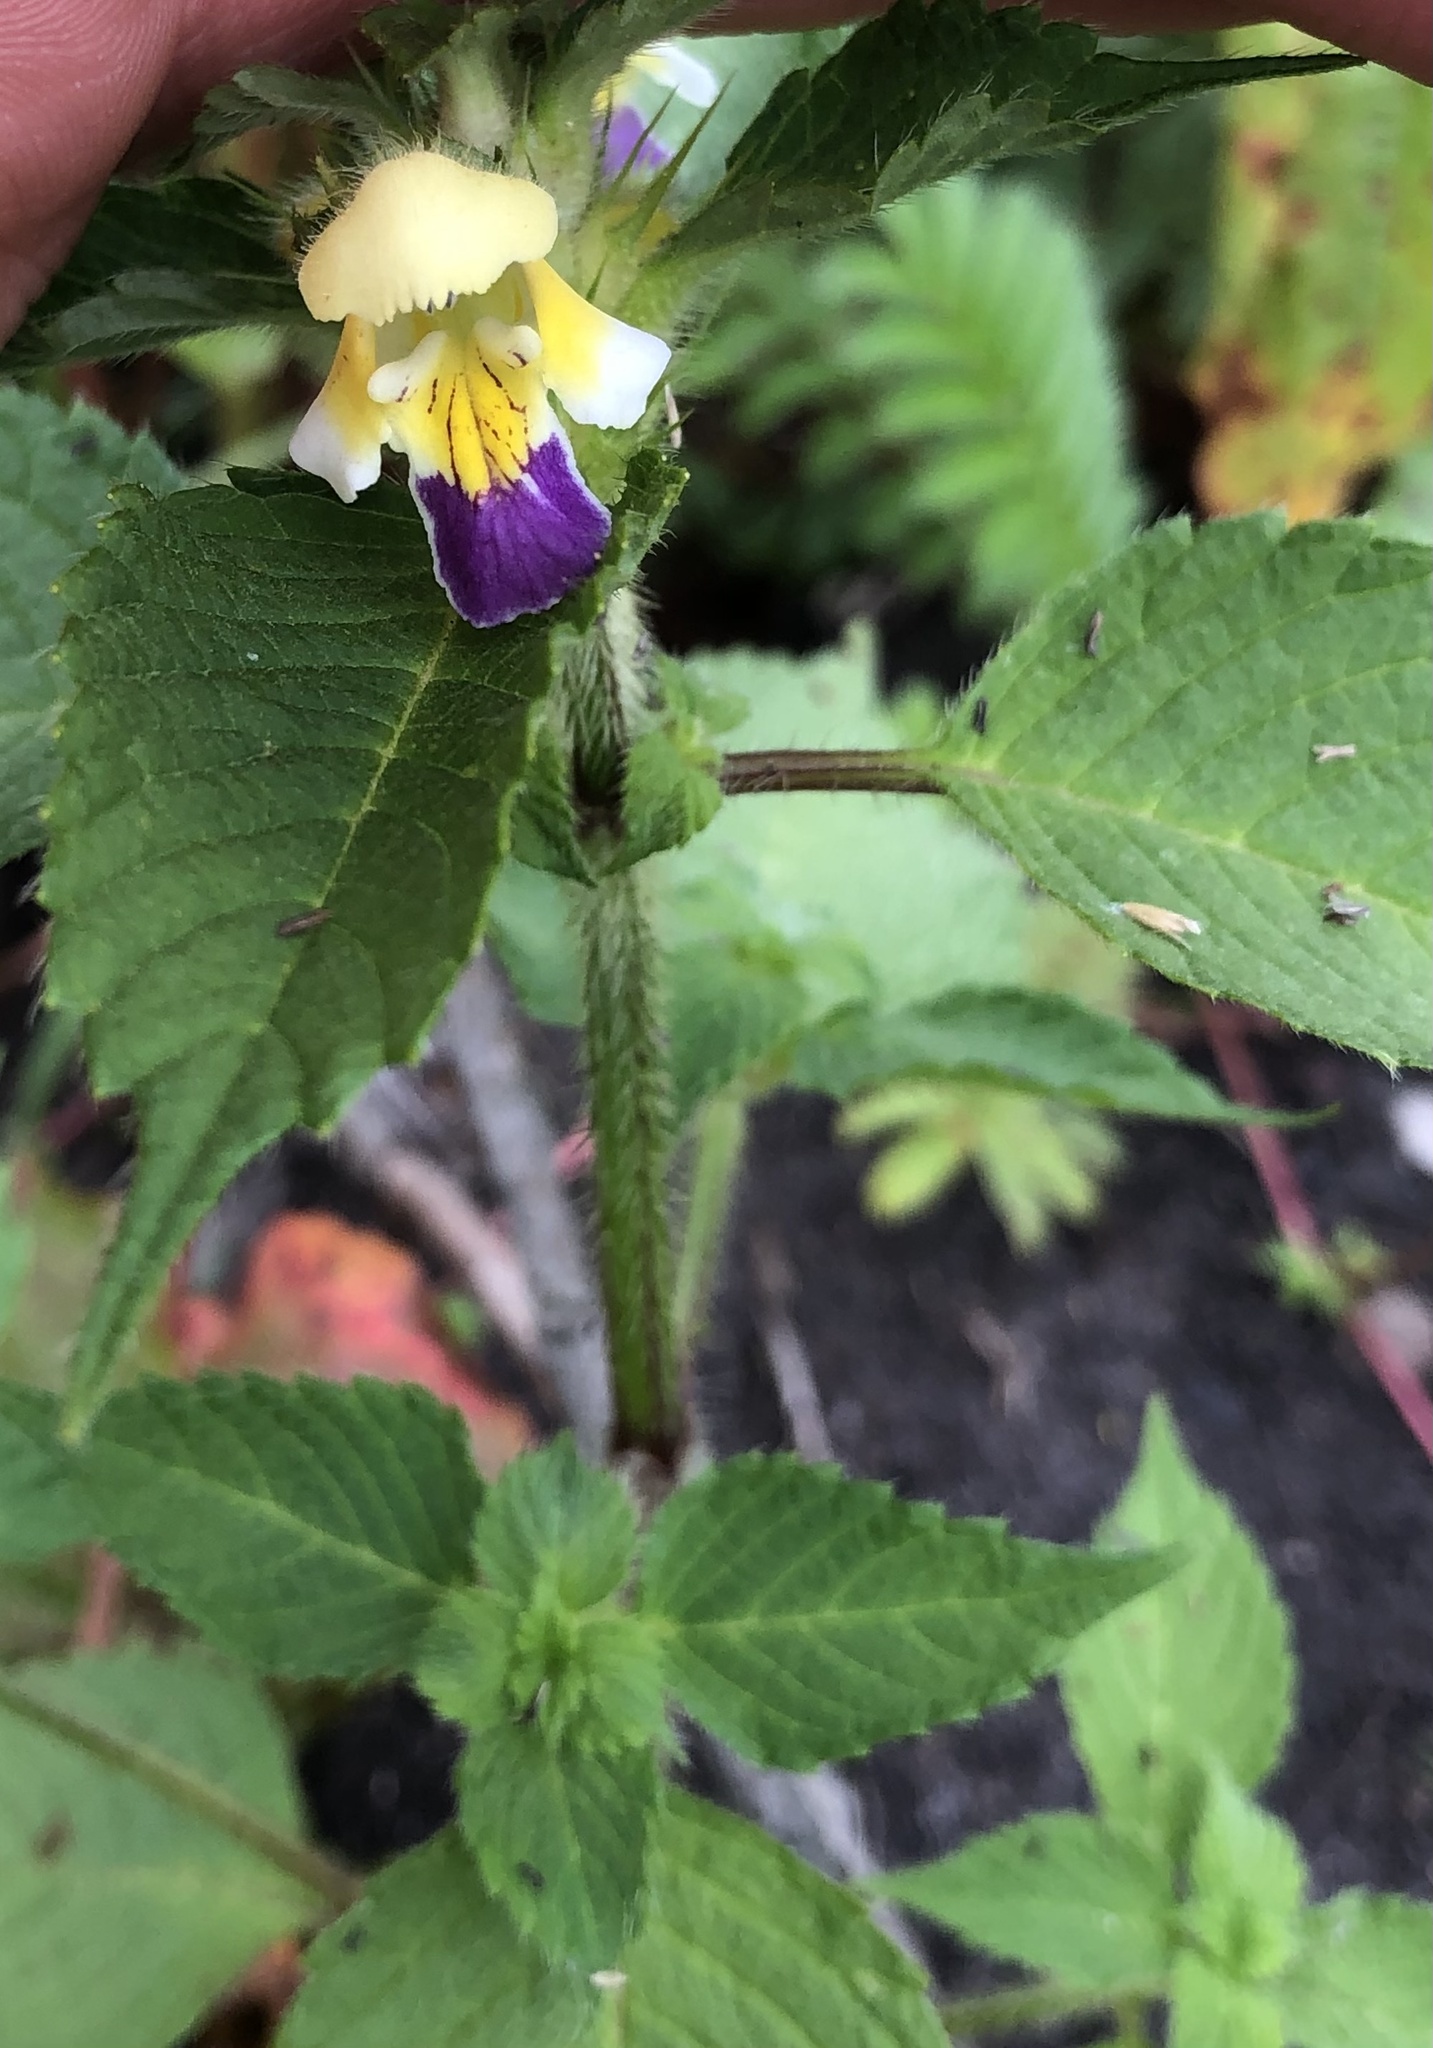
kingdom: Plantae
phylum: Tracheophyta
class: Magnoliopsida
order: Lamiales
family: Lamiaceae
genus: Galeopsis
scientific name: Galeopsis speciosa
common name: Large-flowered hemp-nettle
